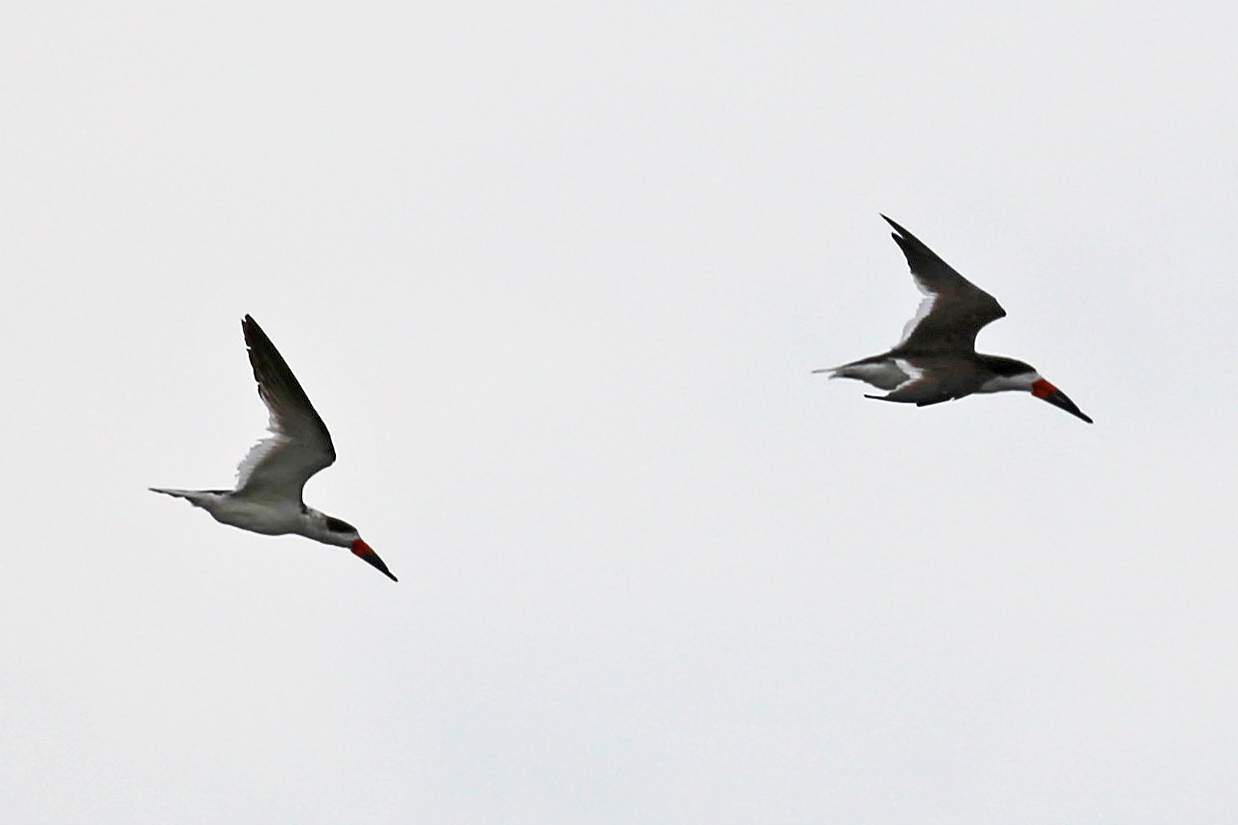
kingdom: Animalia
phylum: Chordata
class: Aves
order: Charadriiformes
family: Laridae
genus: Rynchops
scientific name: Rynchops niger
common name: Black skimmer
